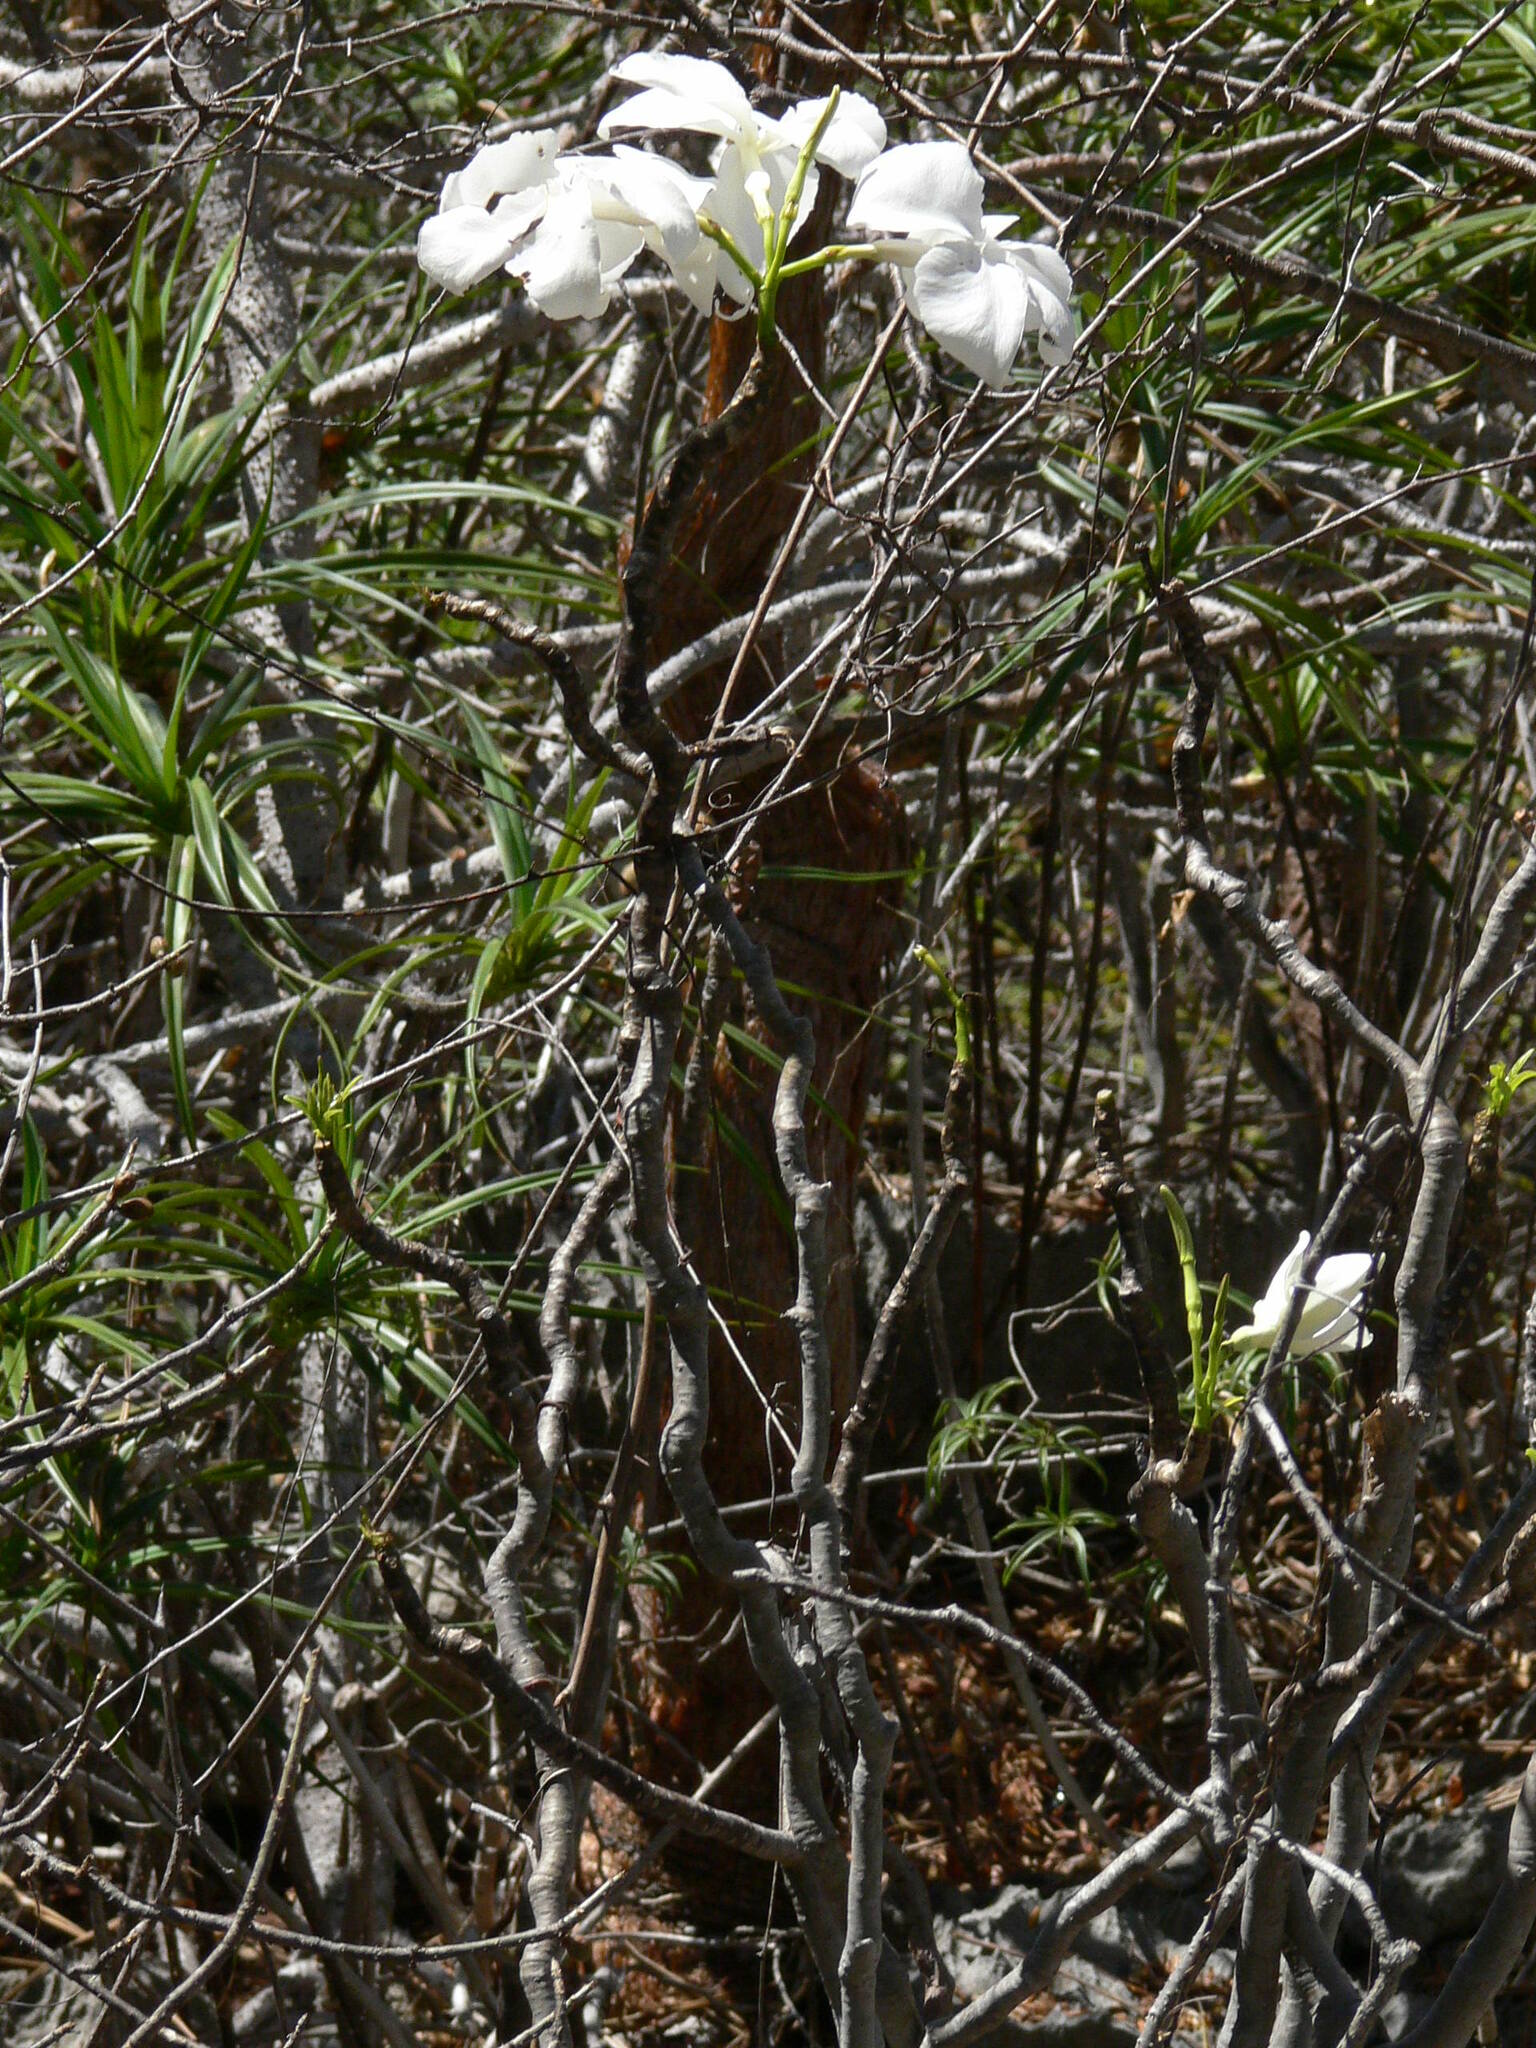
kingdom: Plantae
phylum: Tracheophyta
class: Magnoliopsida
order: Gentianales
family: Apocynaceae
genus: Pachypodium
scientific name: Pachypodium decaryi
